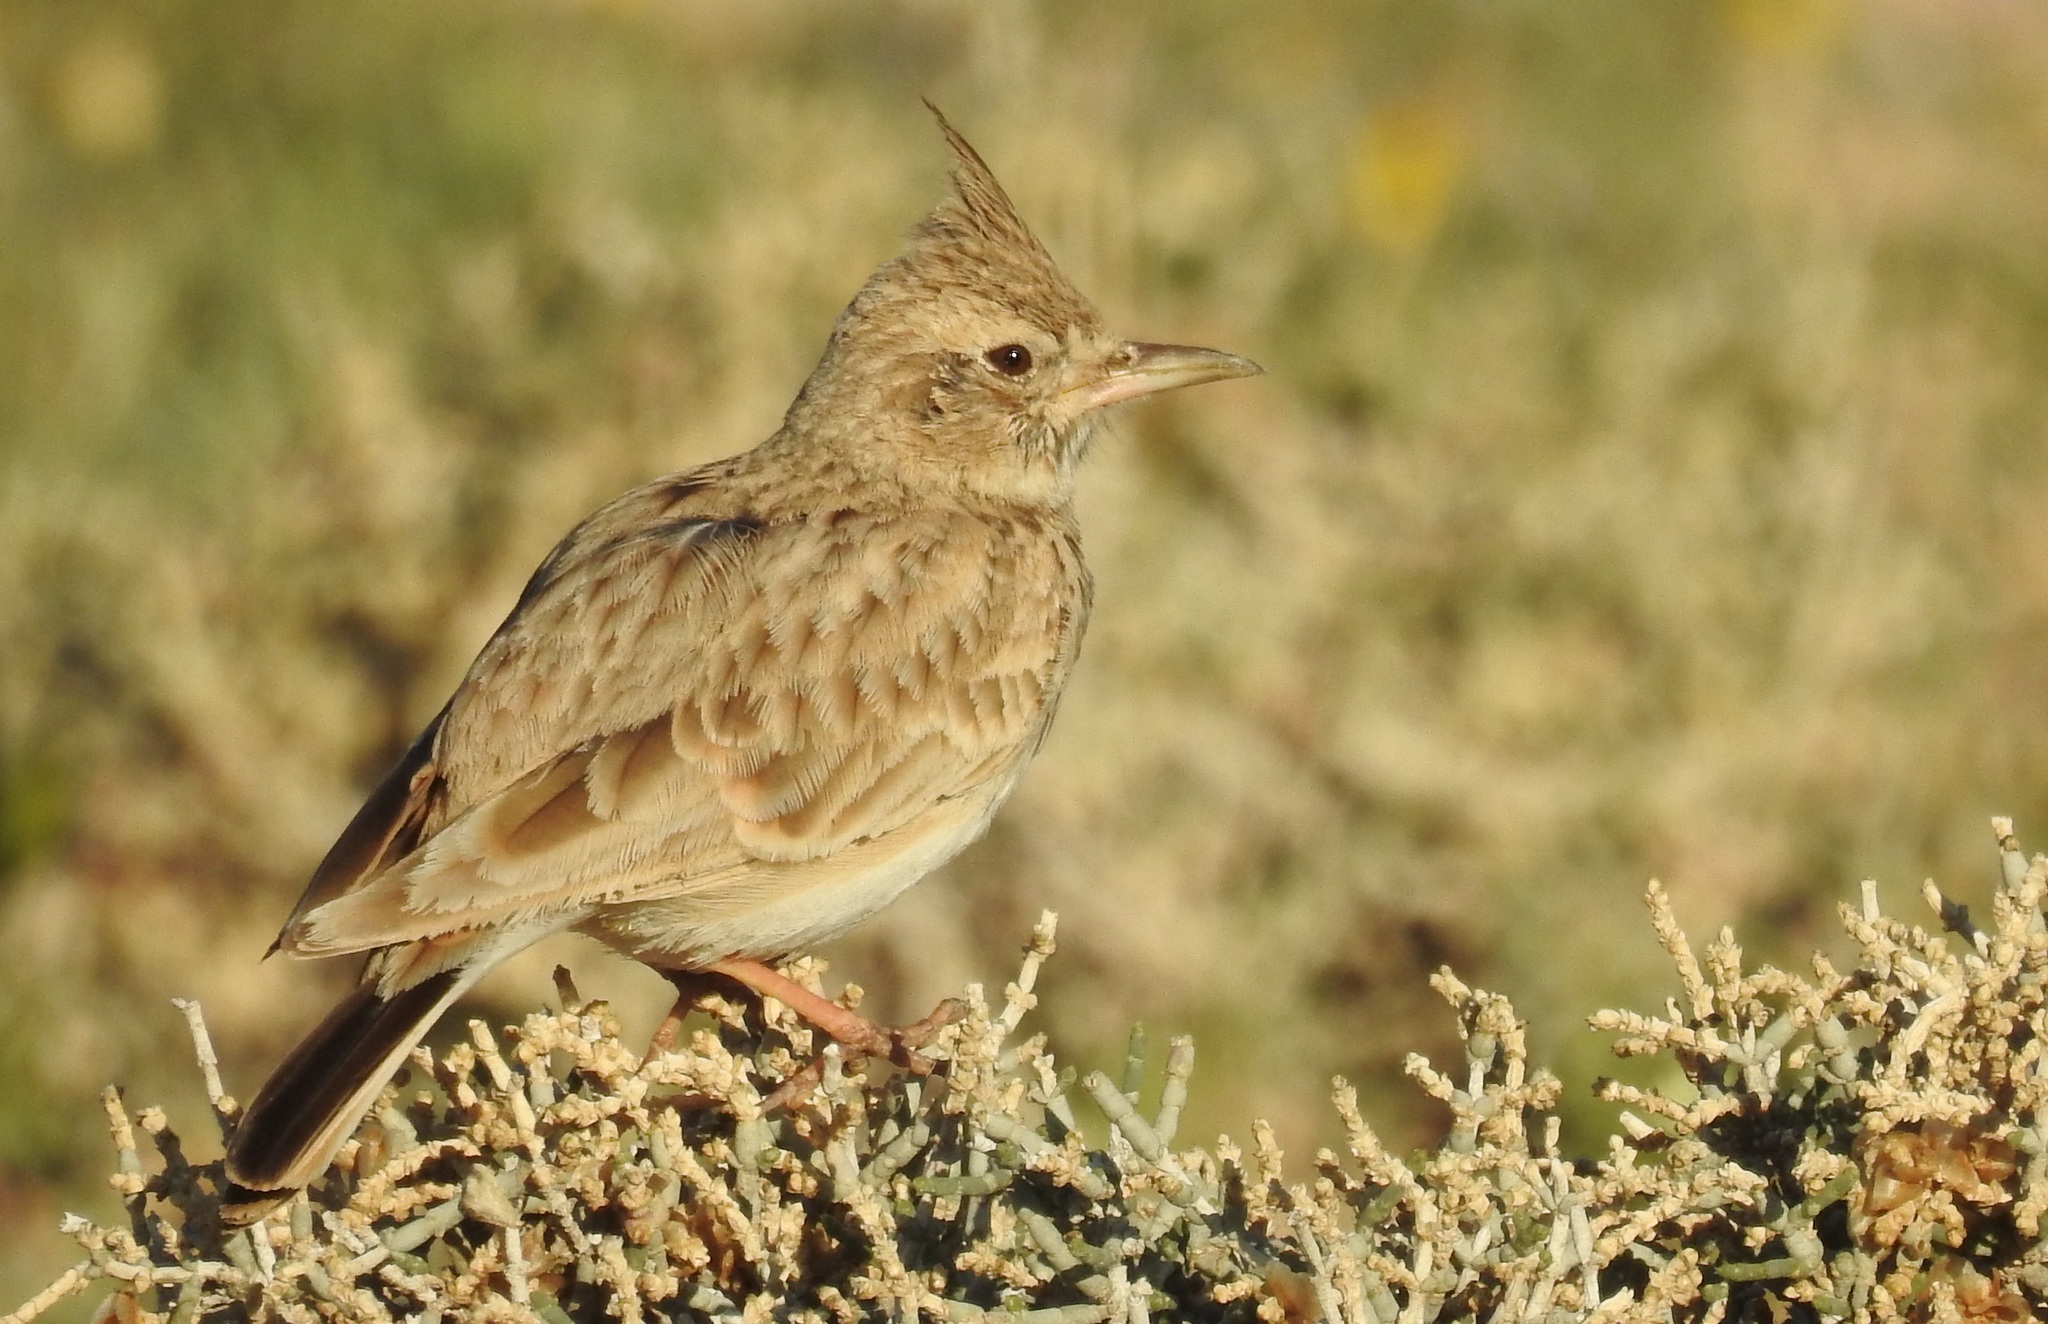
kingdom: Animalia
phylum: Chordata
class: Aves
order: Passeriformes
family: Alaudidae
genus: Galerida
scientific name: Galerida cristata
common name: Crested lark
